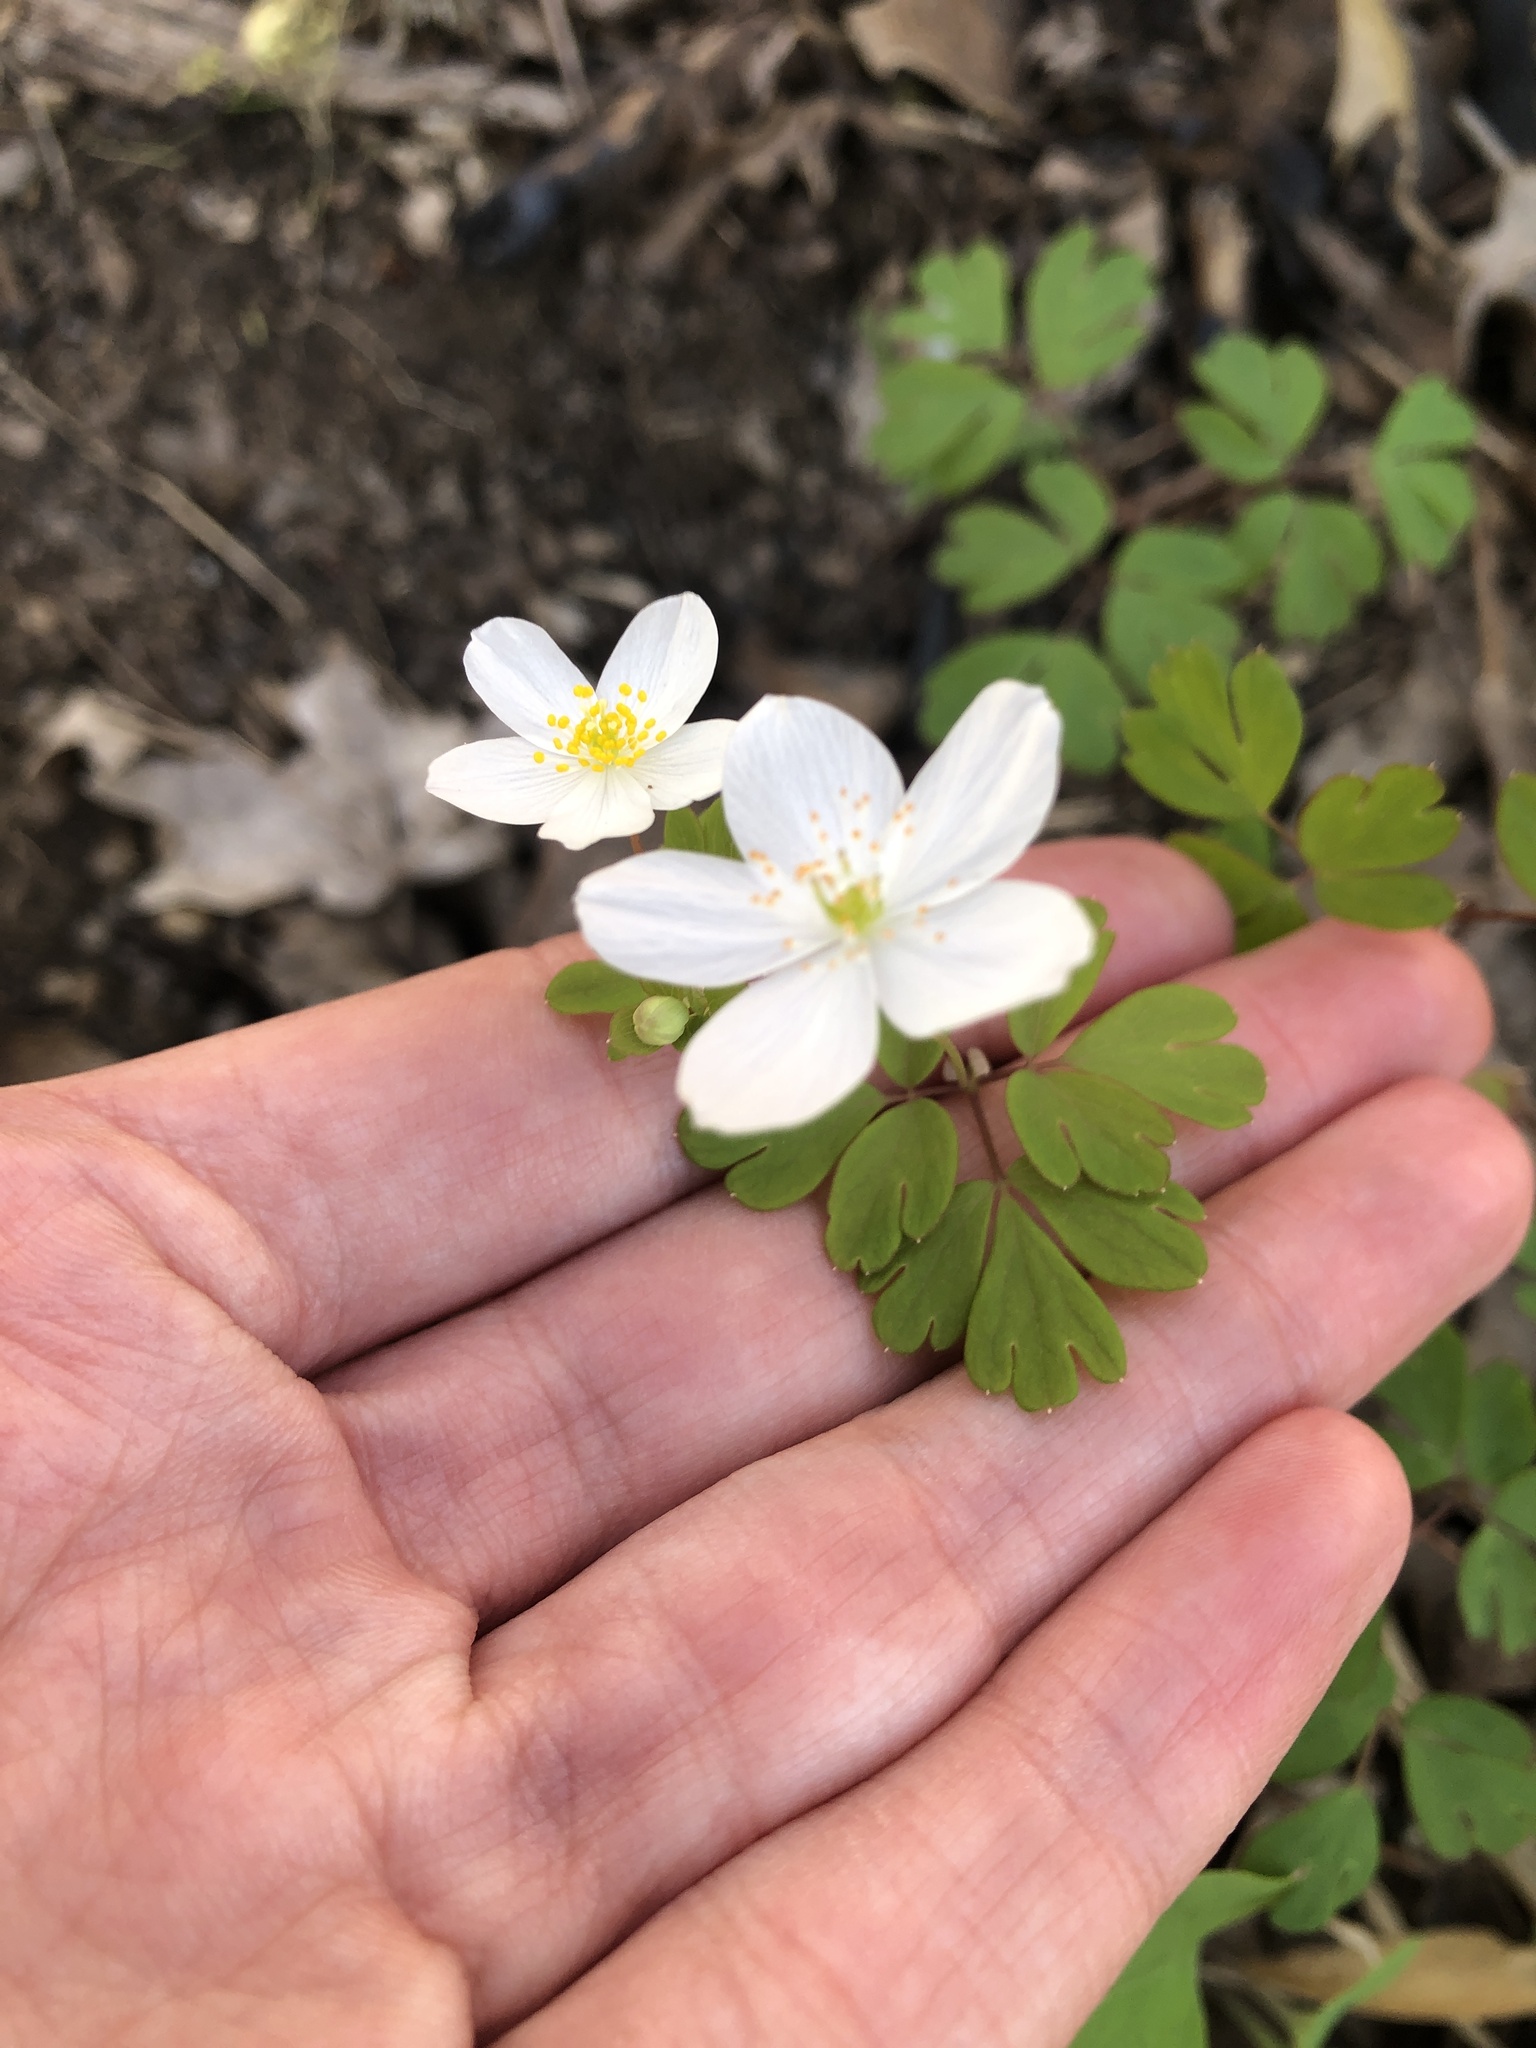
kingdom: Plantae
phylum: Tracheophyta
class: Magnoliopsida
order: Ranunculales
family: Ranunculaceae
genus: Enemion
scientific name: Enemion biternatum
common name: Eastern false rue-anemone
